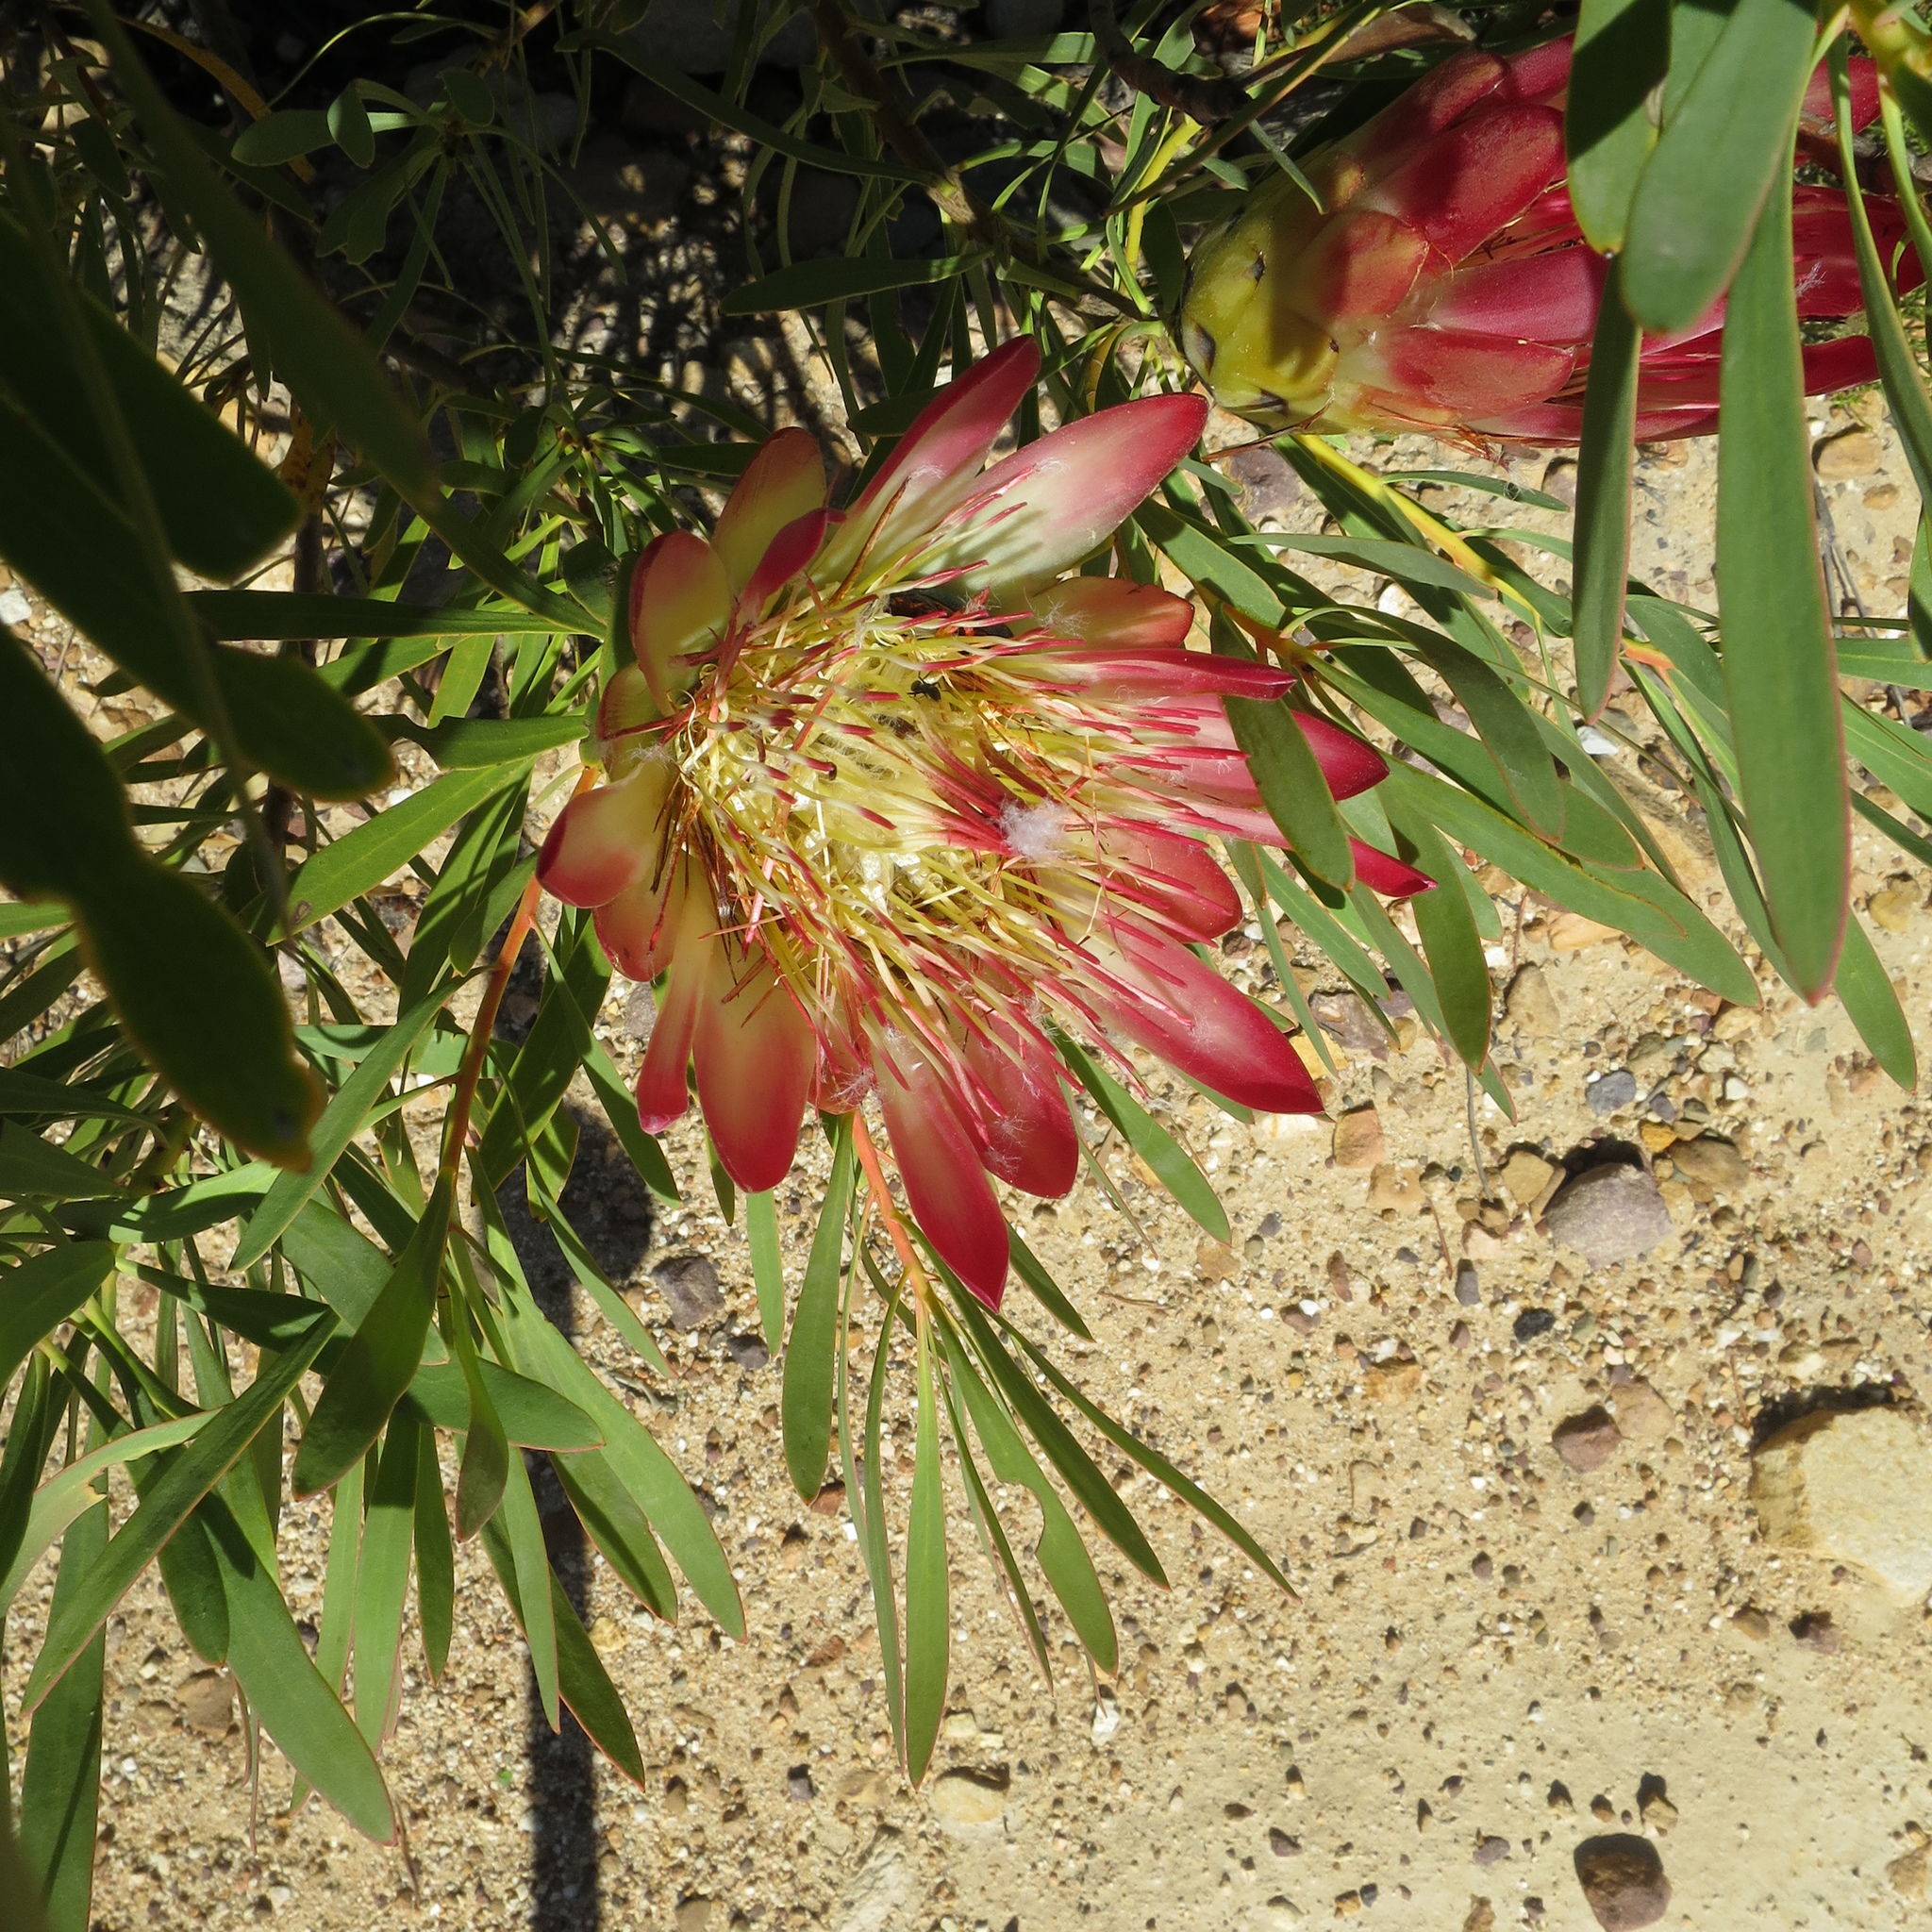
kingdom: Plantae
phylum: Tracheophyta
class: Magnoliopsida
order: Proteales
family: Proteaceae
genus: Protea
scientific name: Protea repens
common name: Sugarbush
